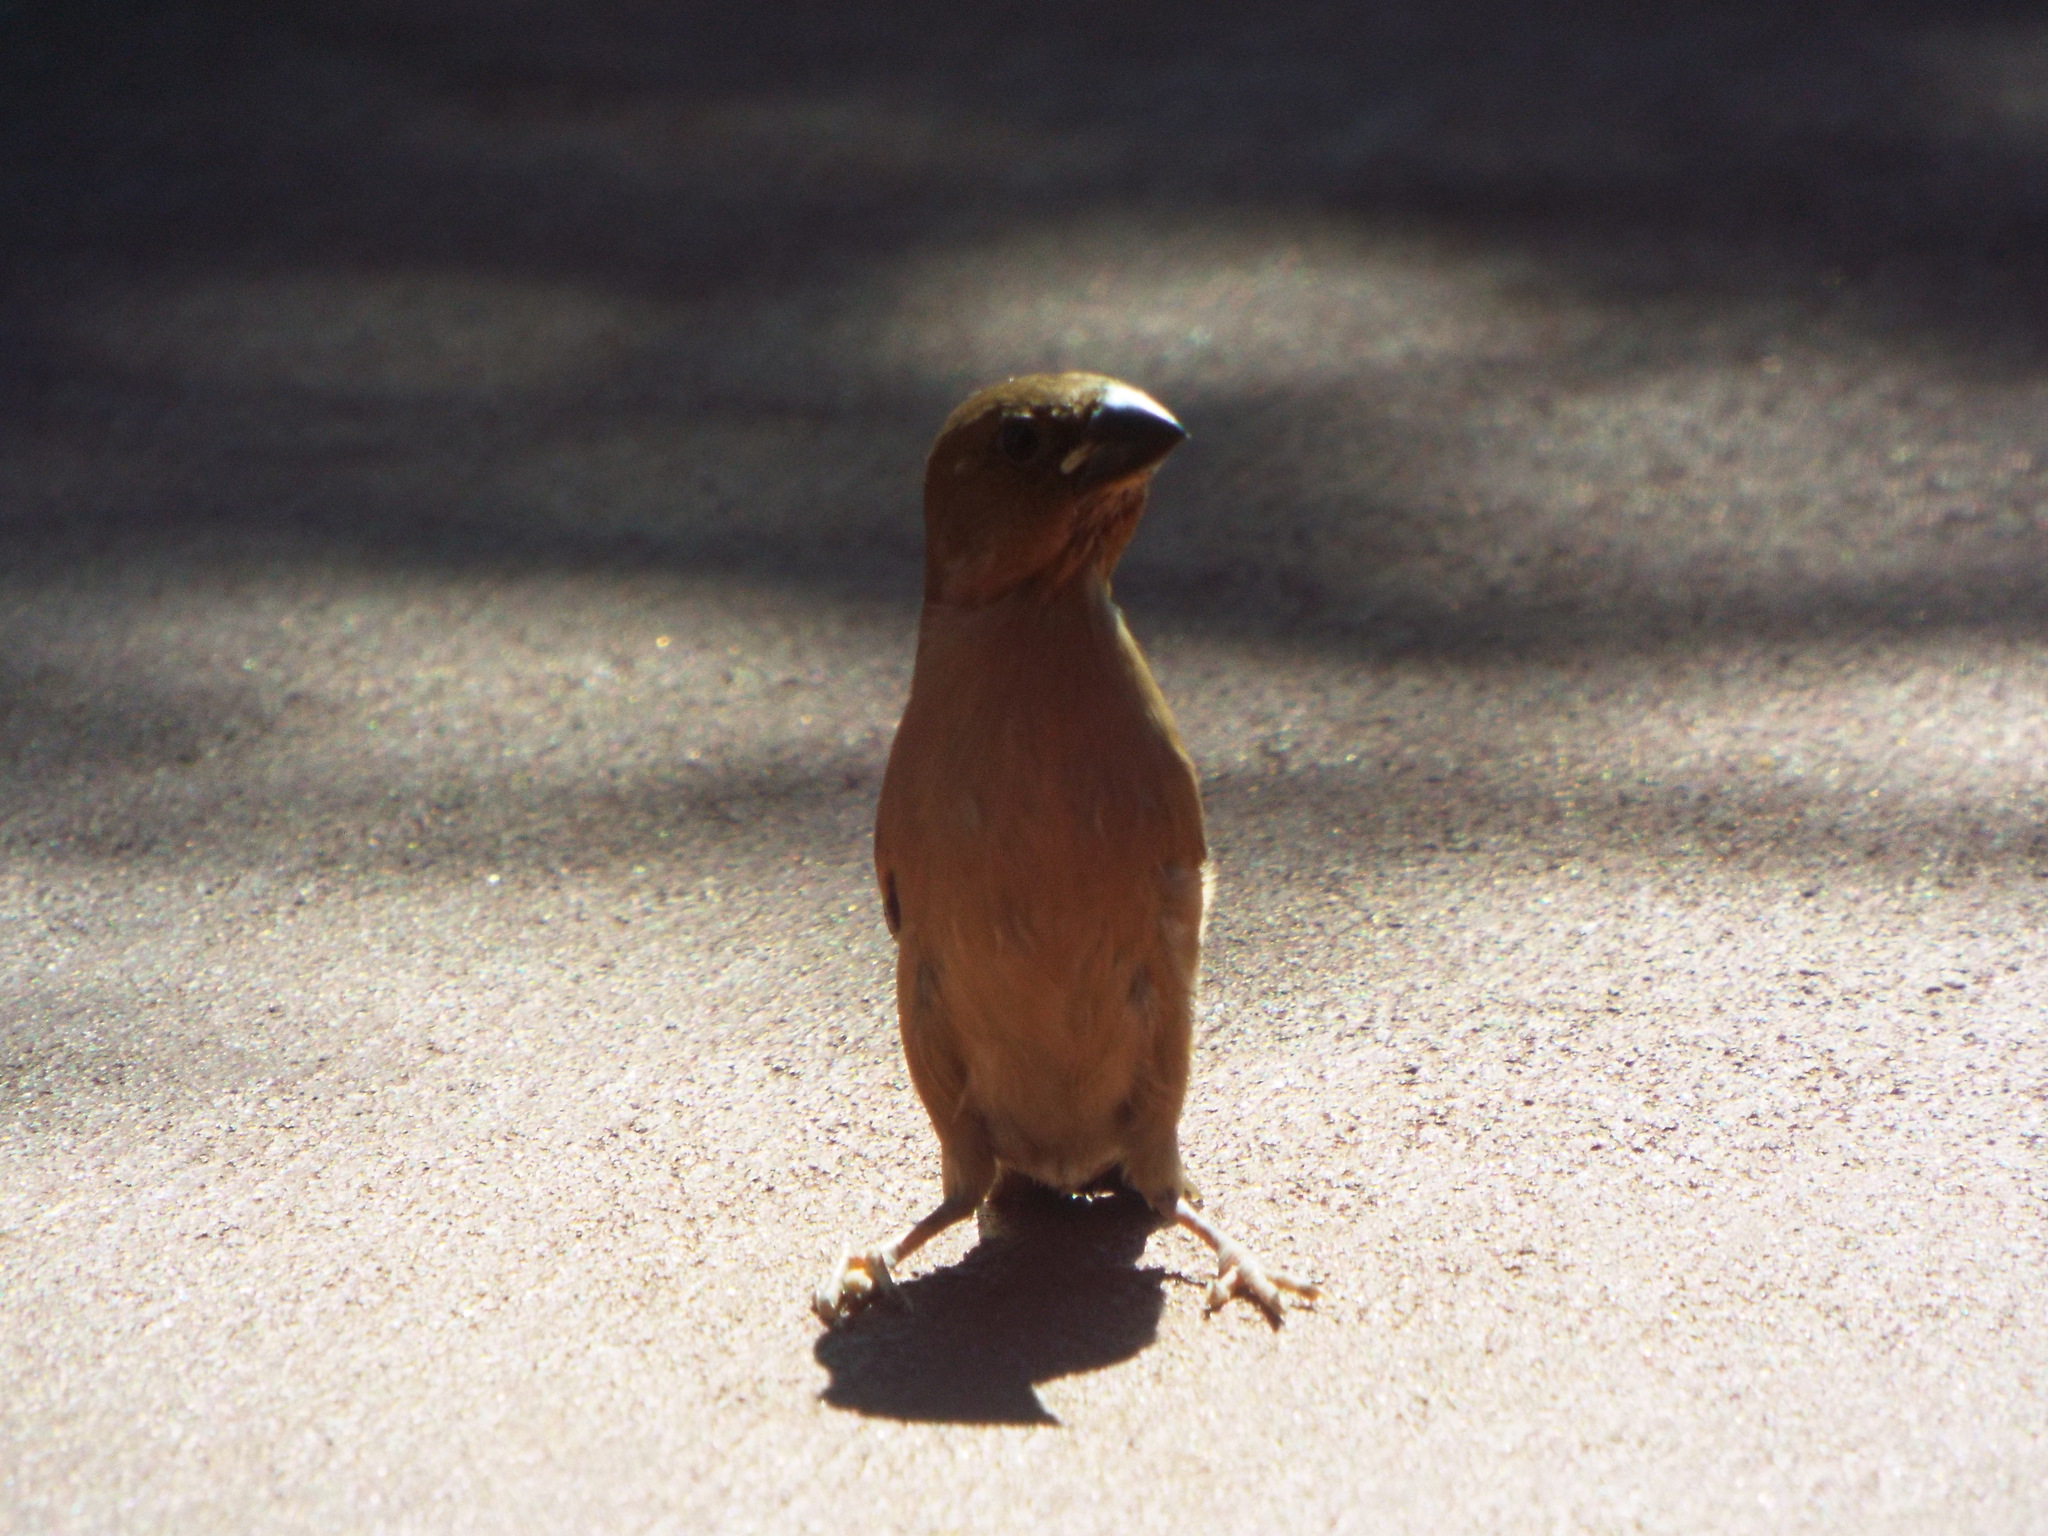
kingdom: Animalia
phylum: Chordata
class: Aves
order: Passeriformes
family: Estrildidae
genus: Lonchura
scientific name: Lonchura punctulata
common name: Scaly-breasted munia
